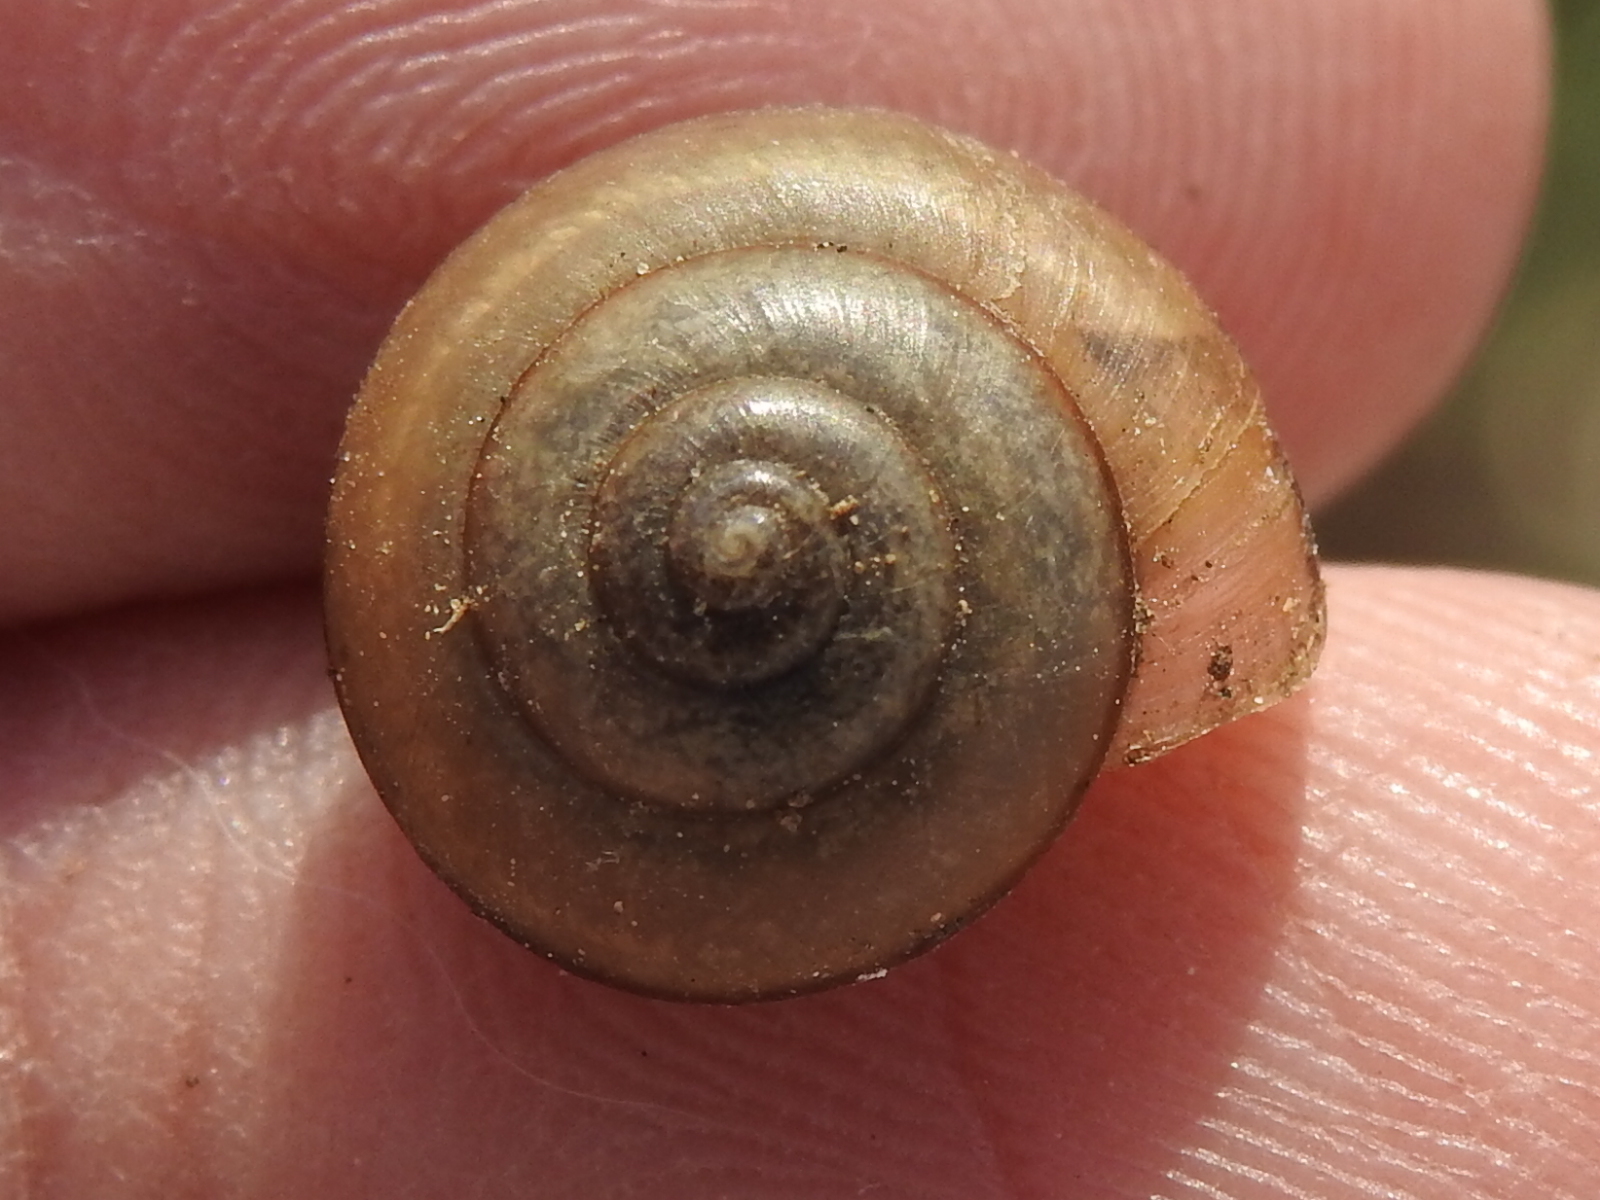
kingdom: Animalia
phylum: Mollusca
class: Gastropoda
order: Stylommatophora
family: Camaenidae
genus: Bradybaena
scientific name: Bradybaena similaris
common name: Asian trampsnail
